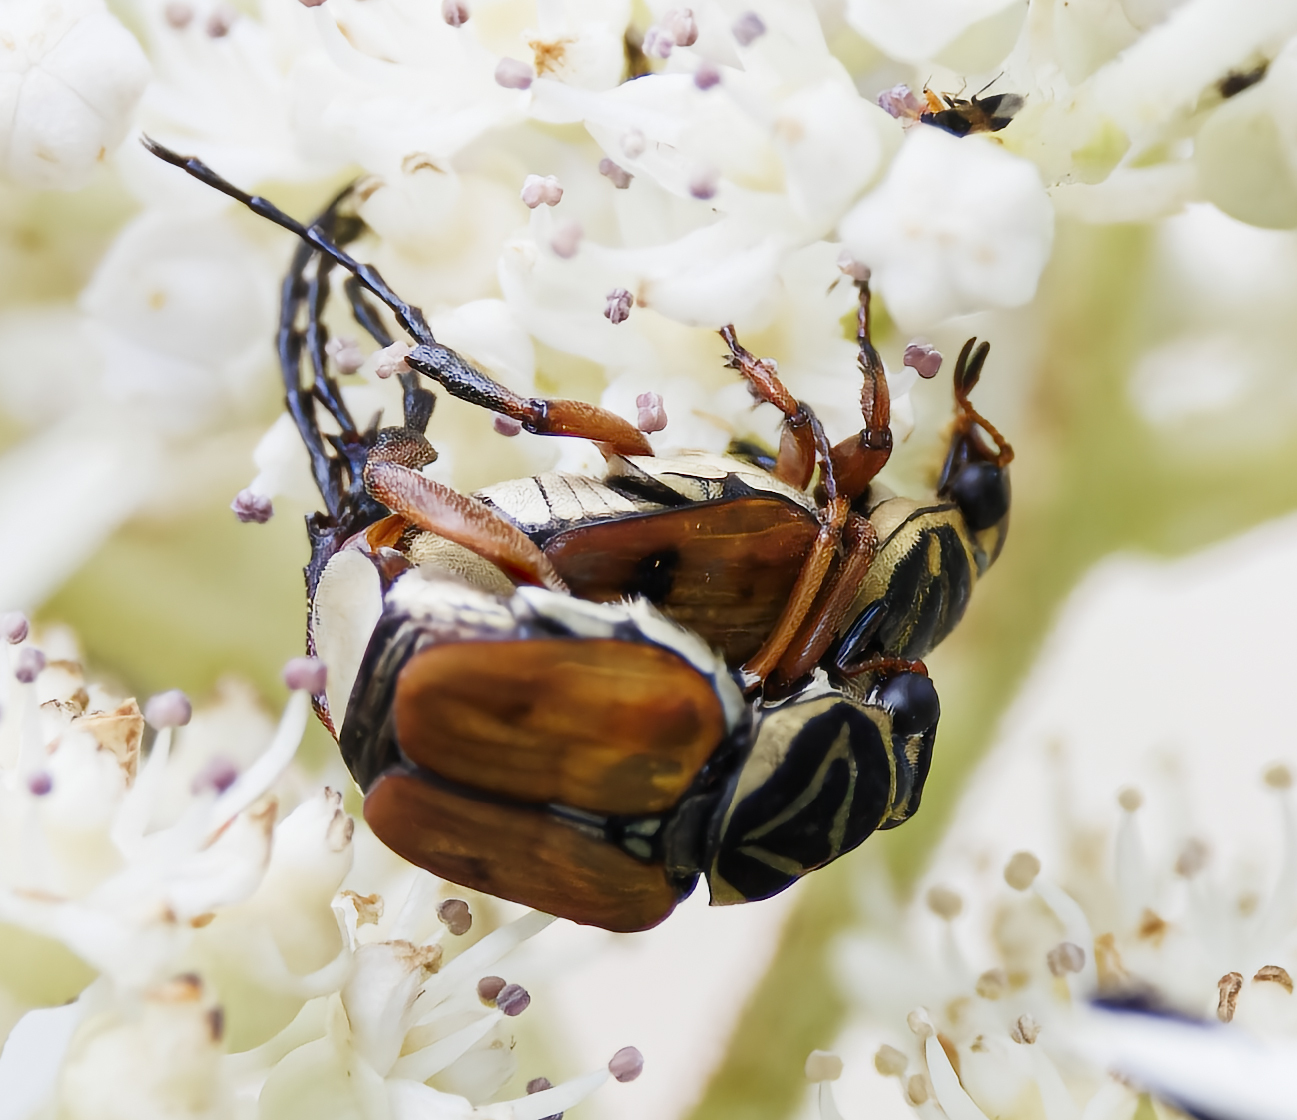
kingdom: Animalia
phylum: Arthropoda
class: Insecta
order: Coleoptera
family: Scarabaeidae
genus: Trigonopeltastes
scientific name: Trigonopeltastes delta
